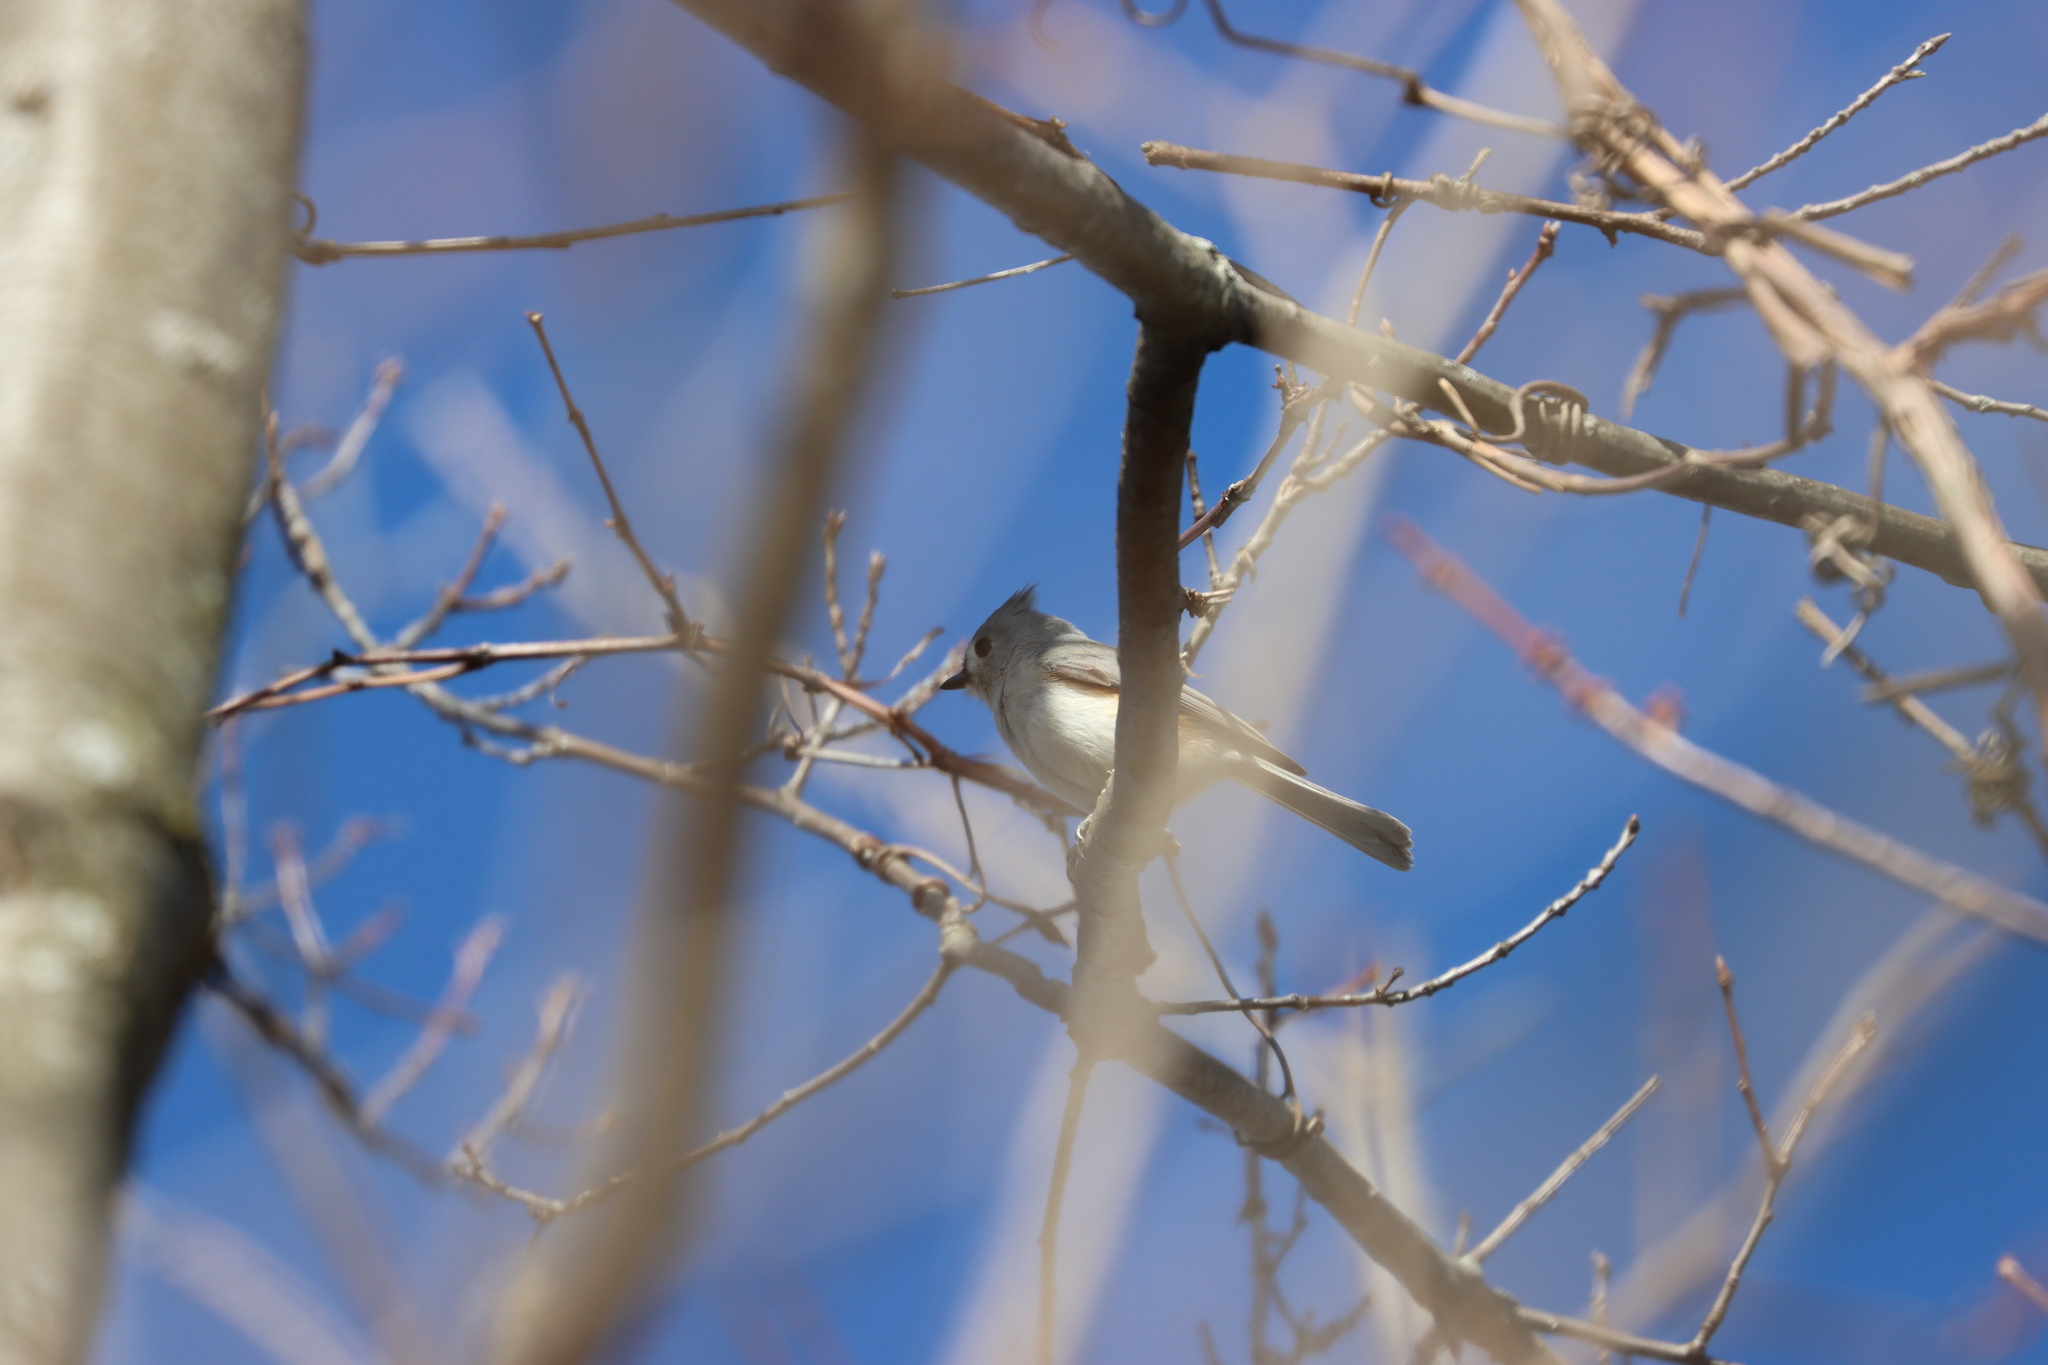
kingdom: Animalia
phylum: Chordata
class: Aves
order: Passeriformes
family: Paridae
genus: Baeolophus
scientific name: Baeolophus bicolor
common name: Tufted titmouse
